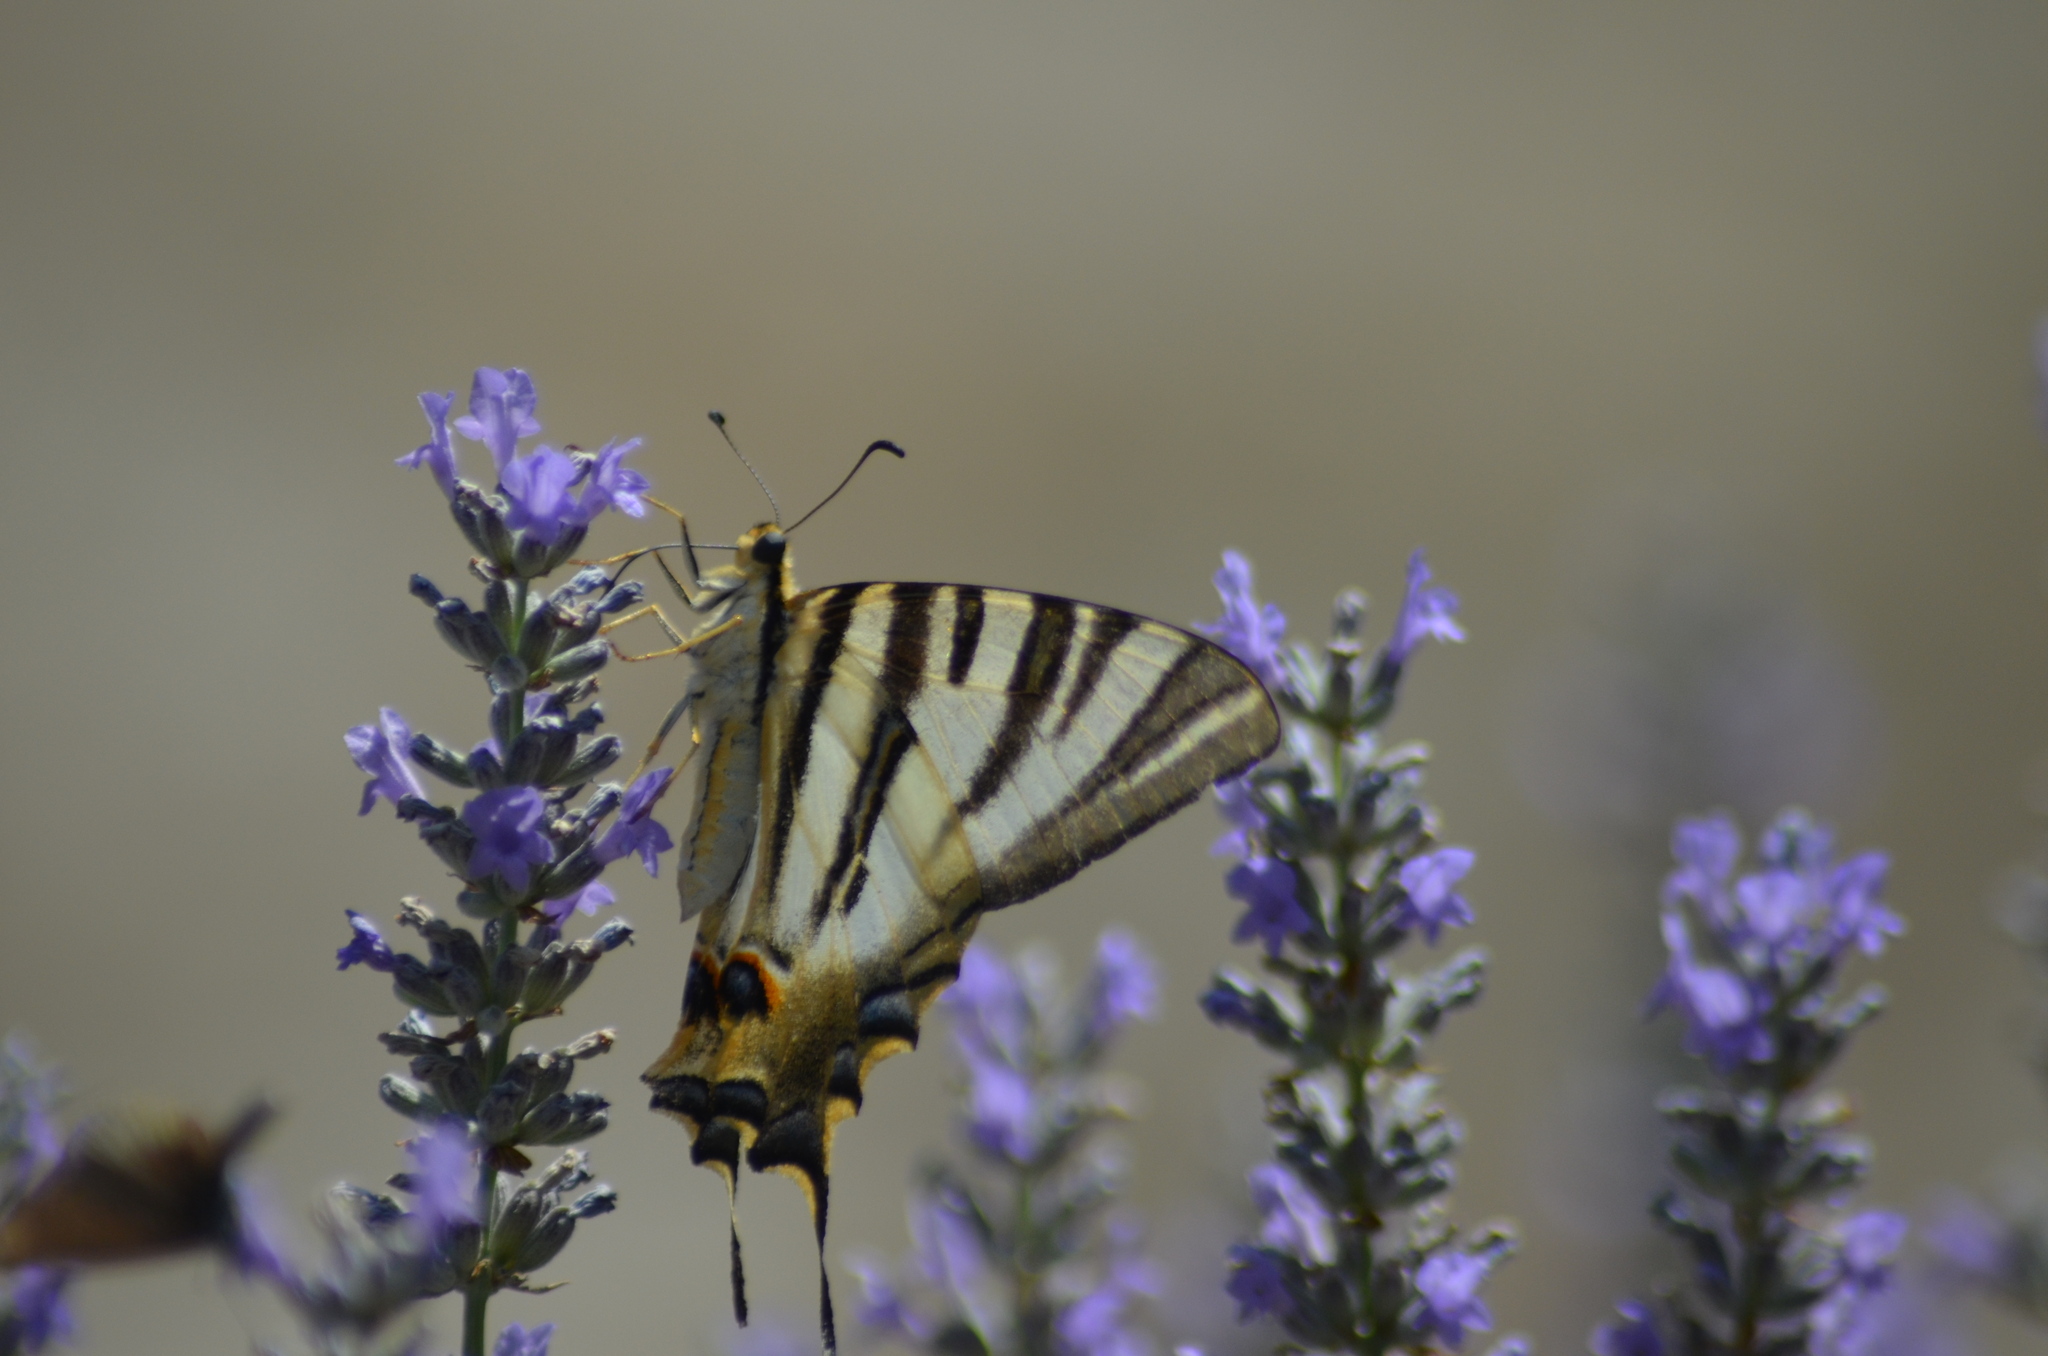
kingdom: Animalia
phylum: Arthropoda
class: Insecta
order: Lepidoptera
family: Papilionidae
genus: Iphiclides
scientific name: Iphiclides feisthamelii
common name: Iberian scarce swallowtail
